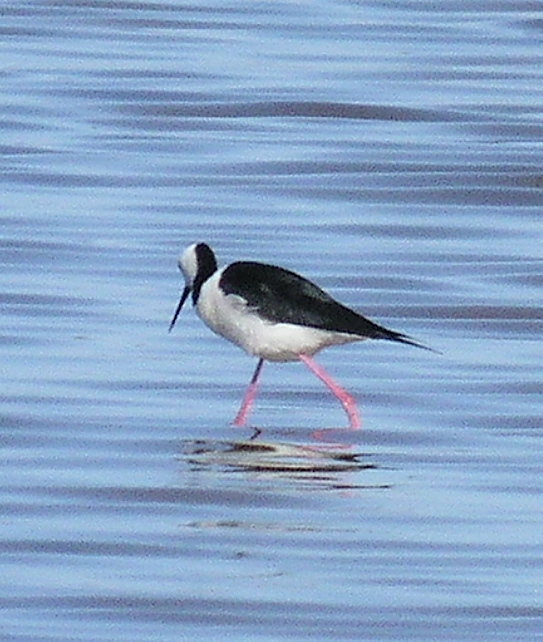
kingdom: Animalia
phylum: Chordata
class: Aves
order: Charadriiformes
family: Recurvirostridae
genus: Himantopus
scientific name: Himantopus leucocephalus
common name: White-headed stilt
